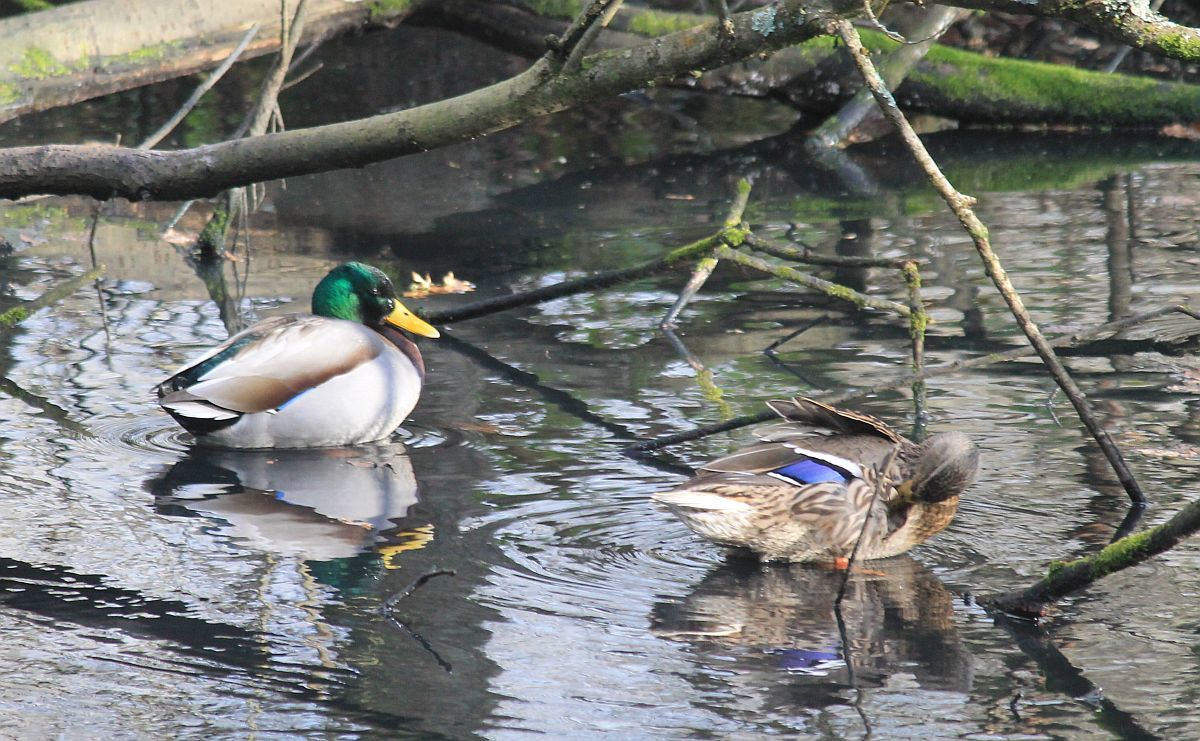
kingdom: Animalia
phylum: Chordata
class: Aves
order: Anseriformes
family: Anatidae
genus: Anas
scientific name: Anas platyrhynchos
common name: Mallard
